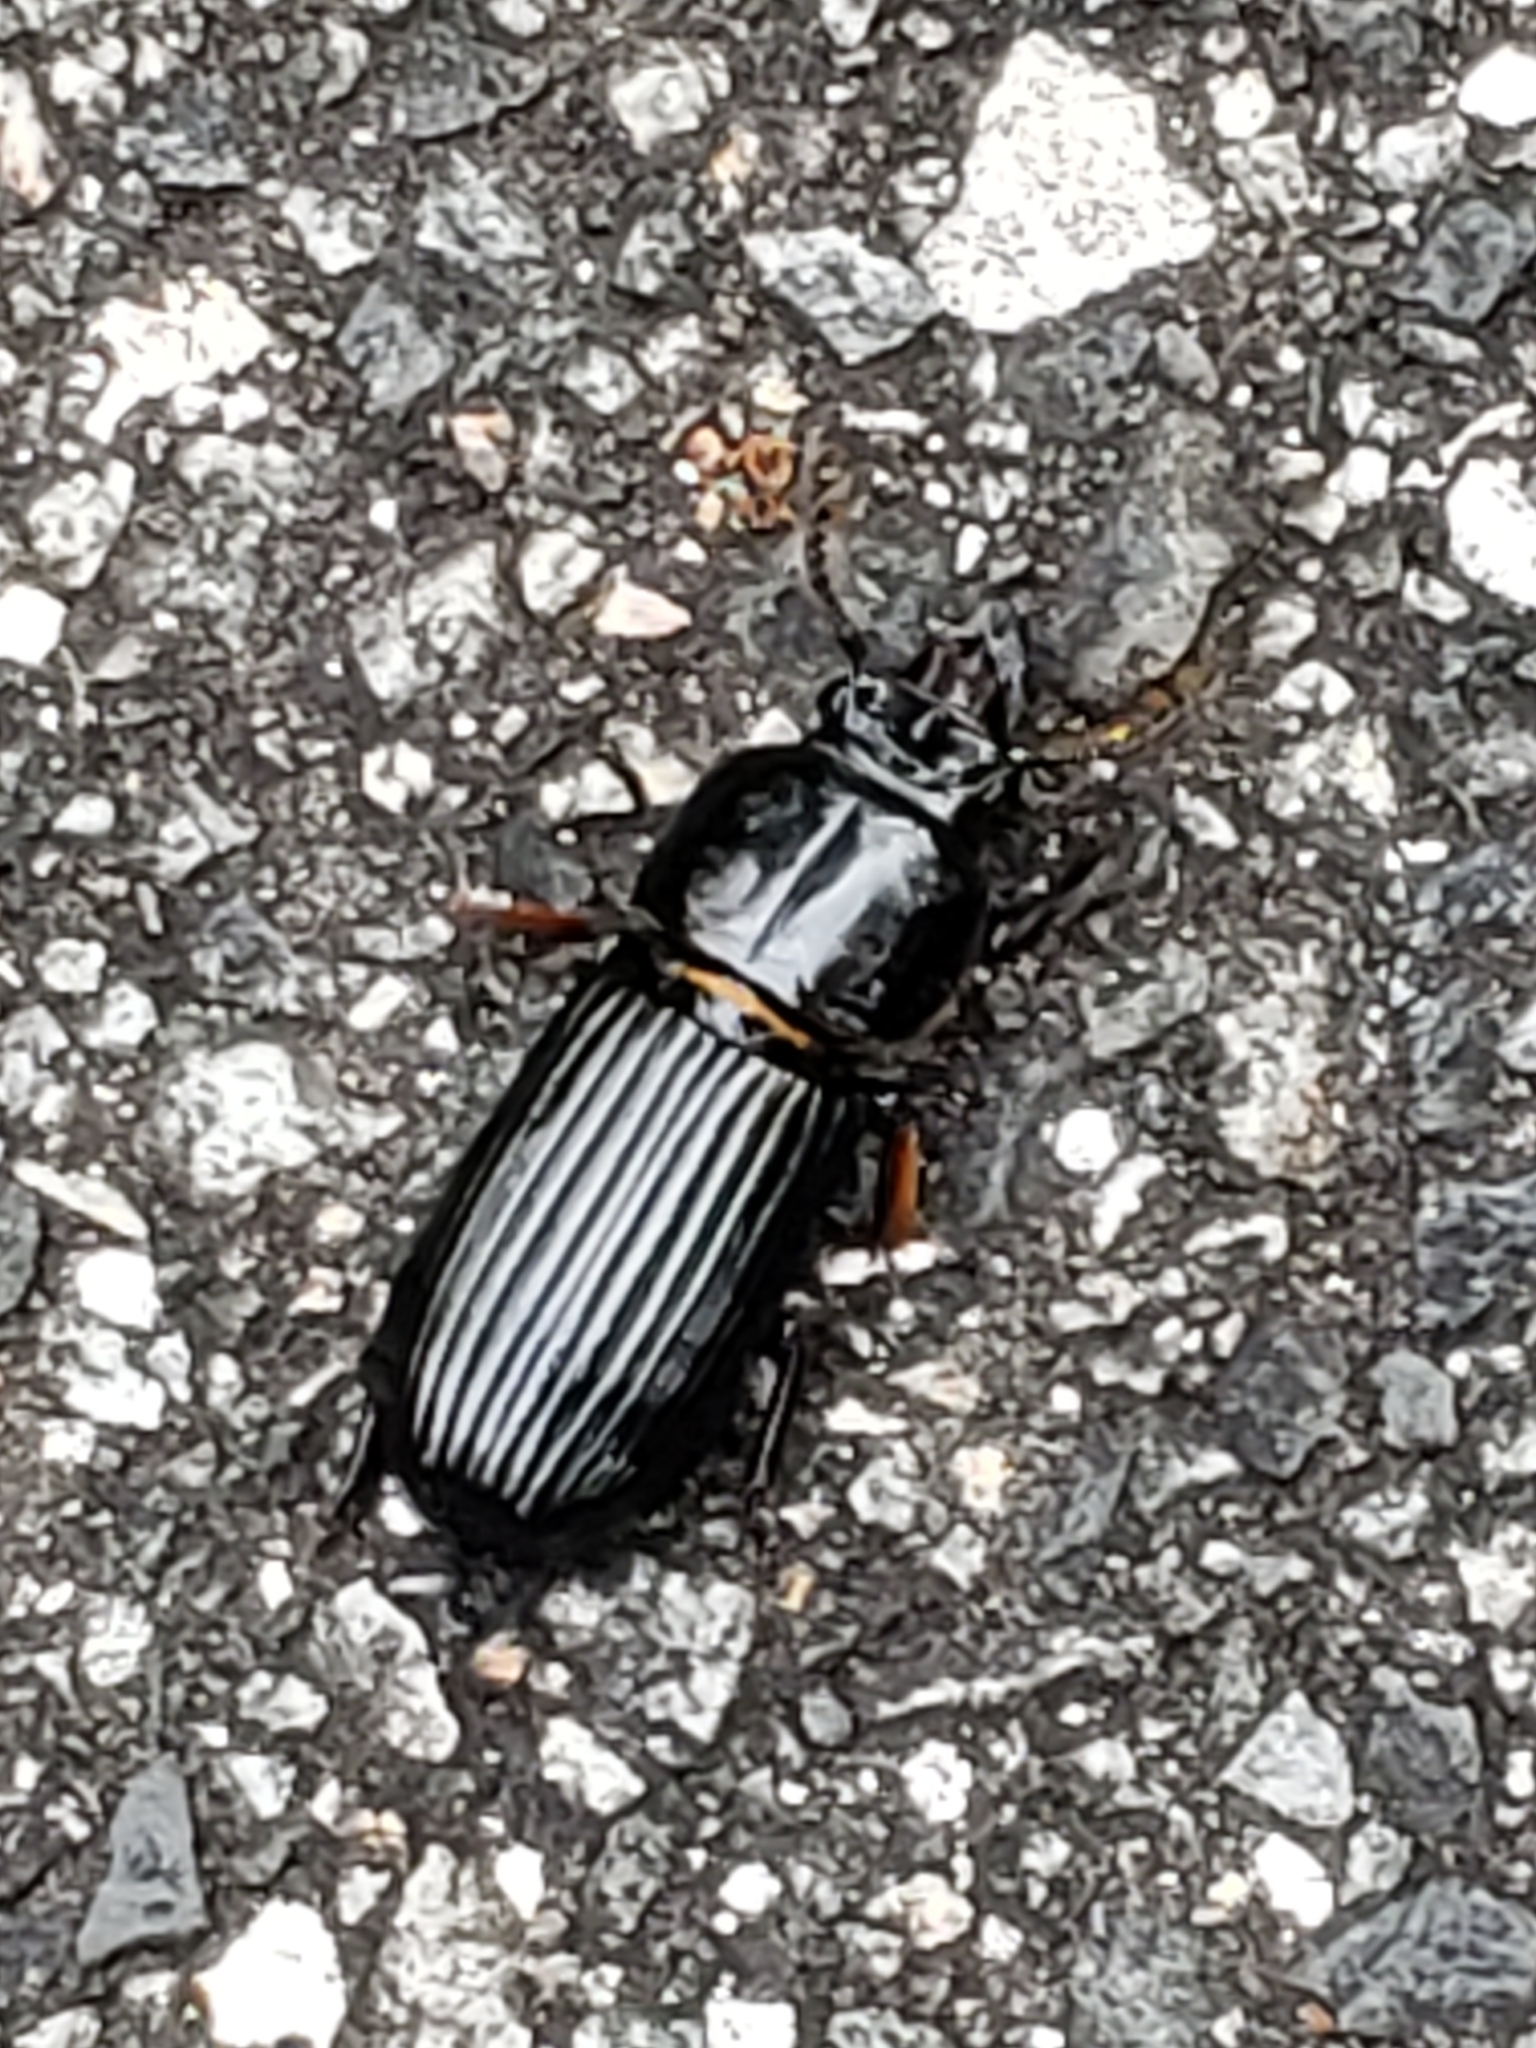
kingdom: Animalia
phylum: Arthropoda
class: Insecta
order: Coleoptera
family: Passalidae
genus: Odontotaenius
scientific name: Odontotaenius disjunctus
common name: Patent leather beetle
